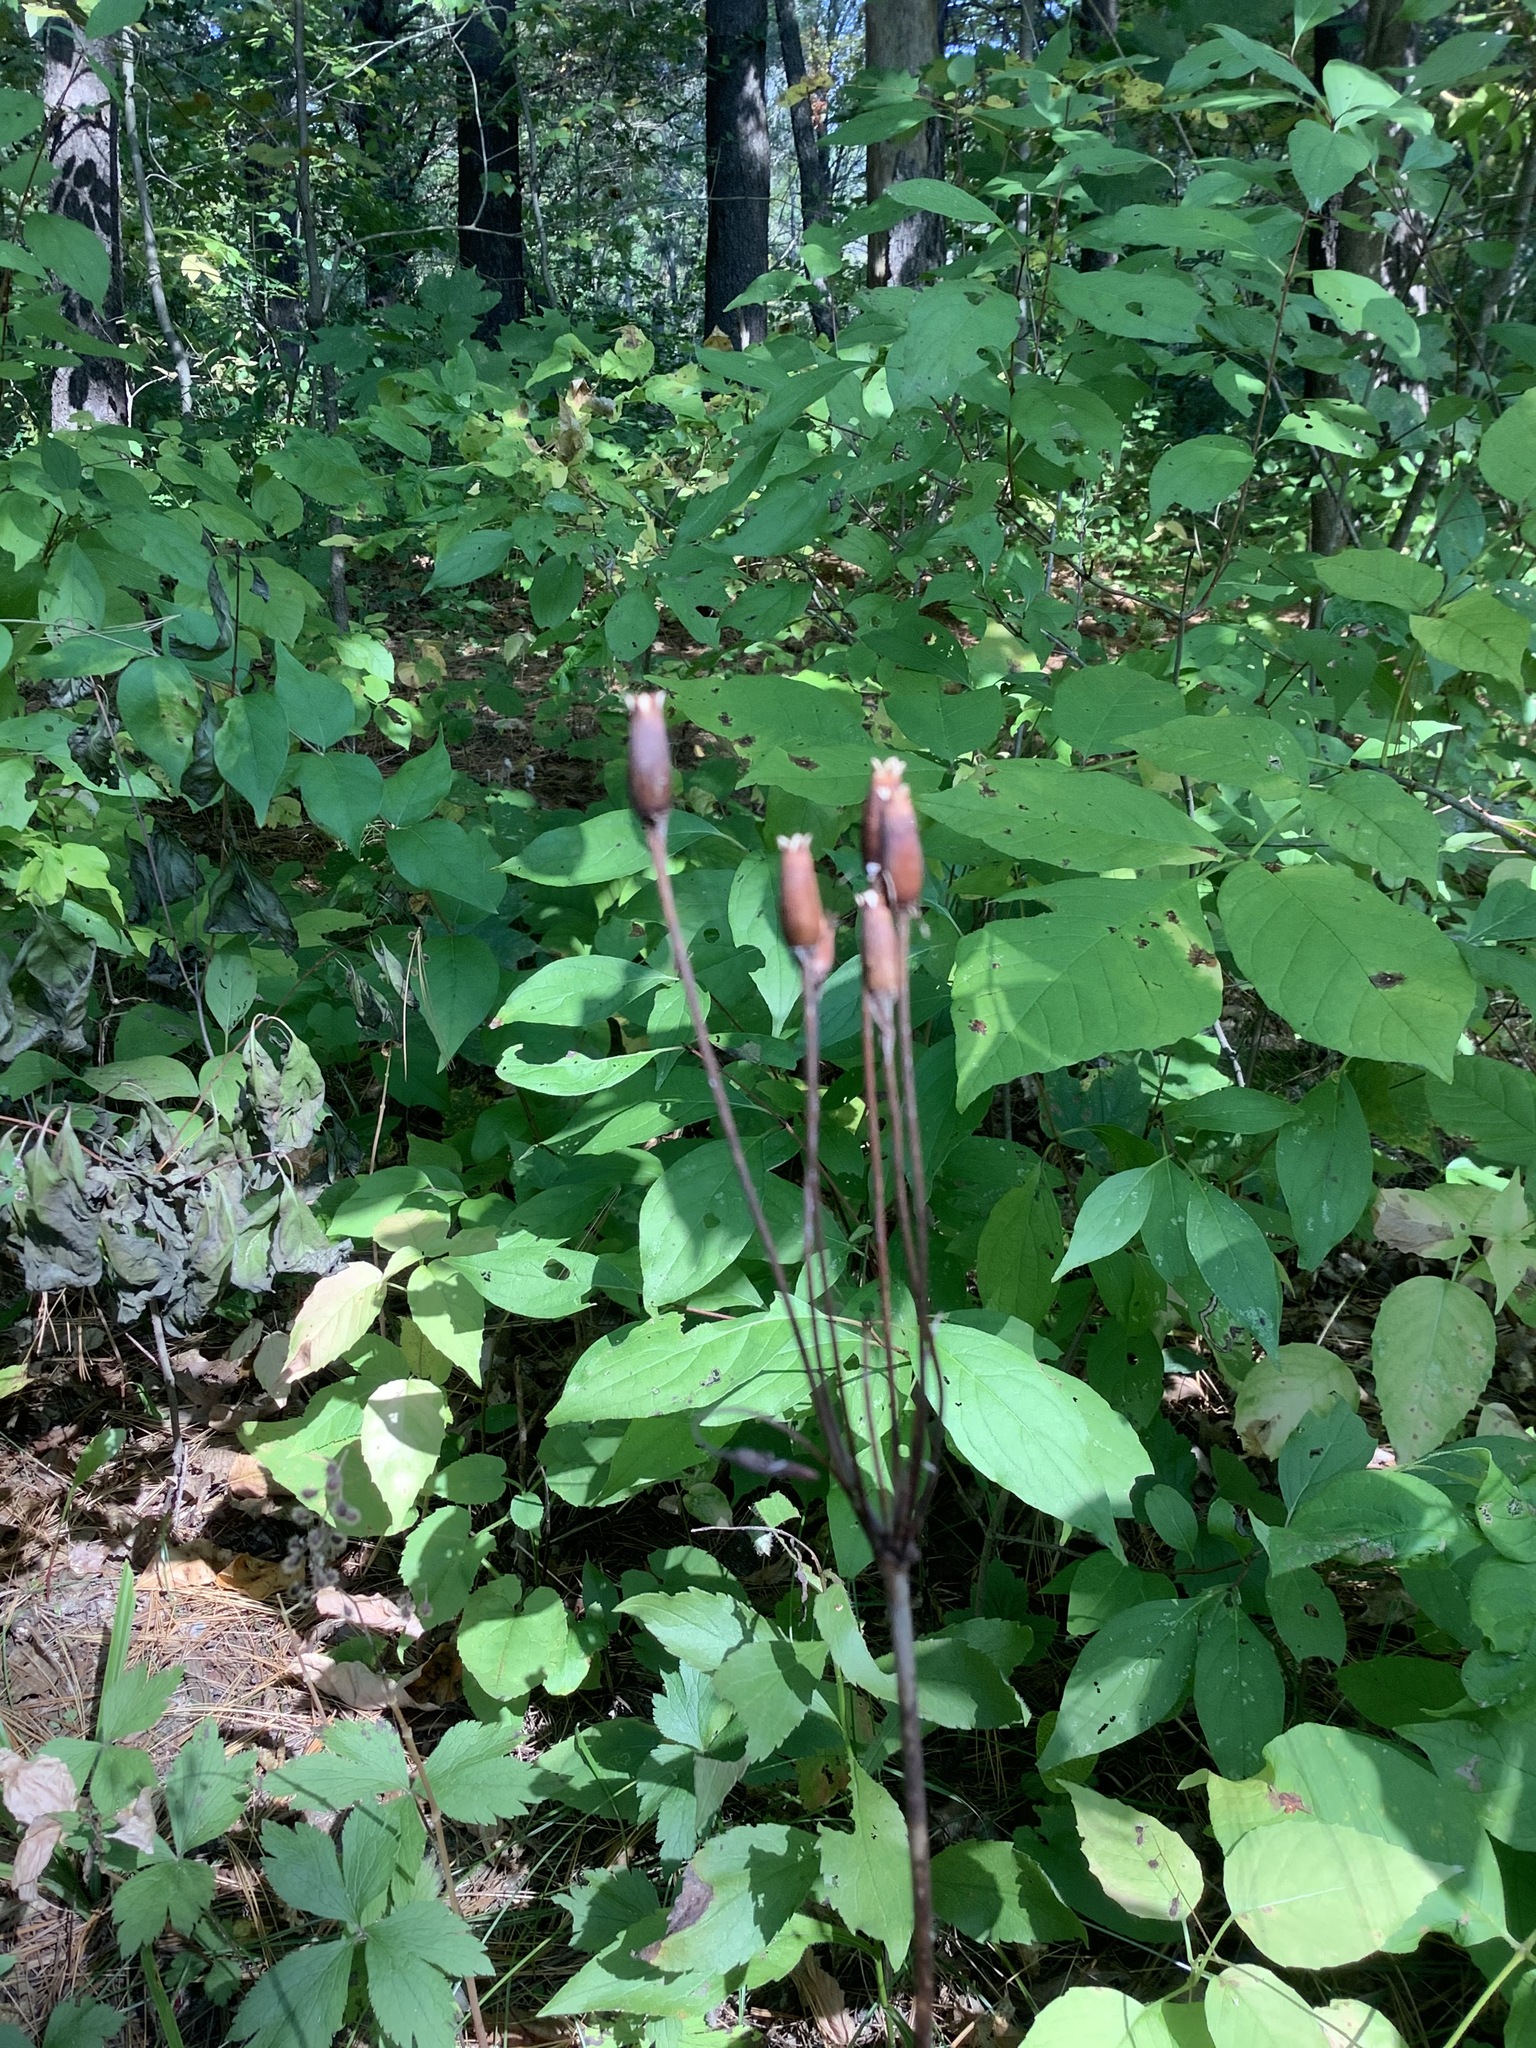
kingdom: Plantae
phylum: Tracheophyta
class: Magnoliopsida
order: Ericales
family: Primulaceae
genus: Dodecatheon
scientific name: Dodecatheon meadia
